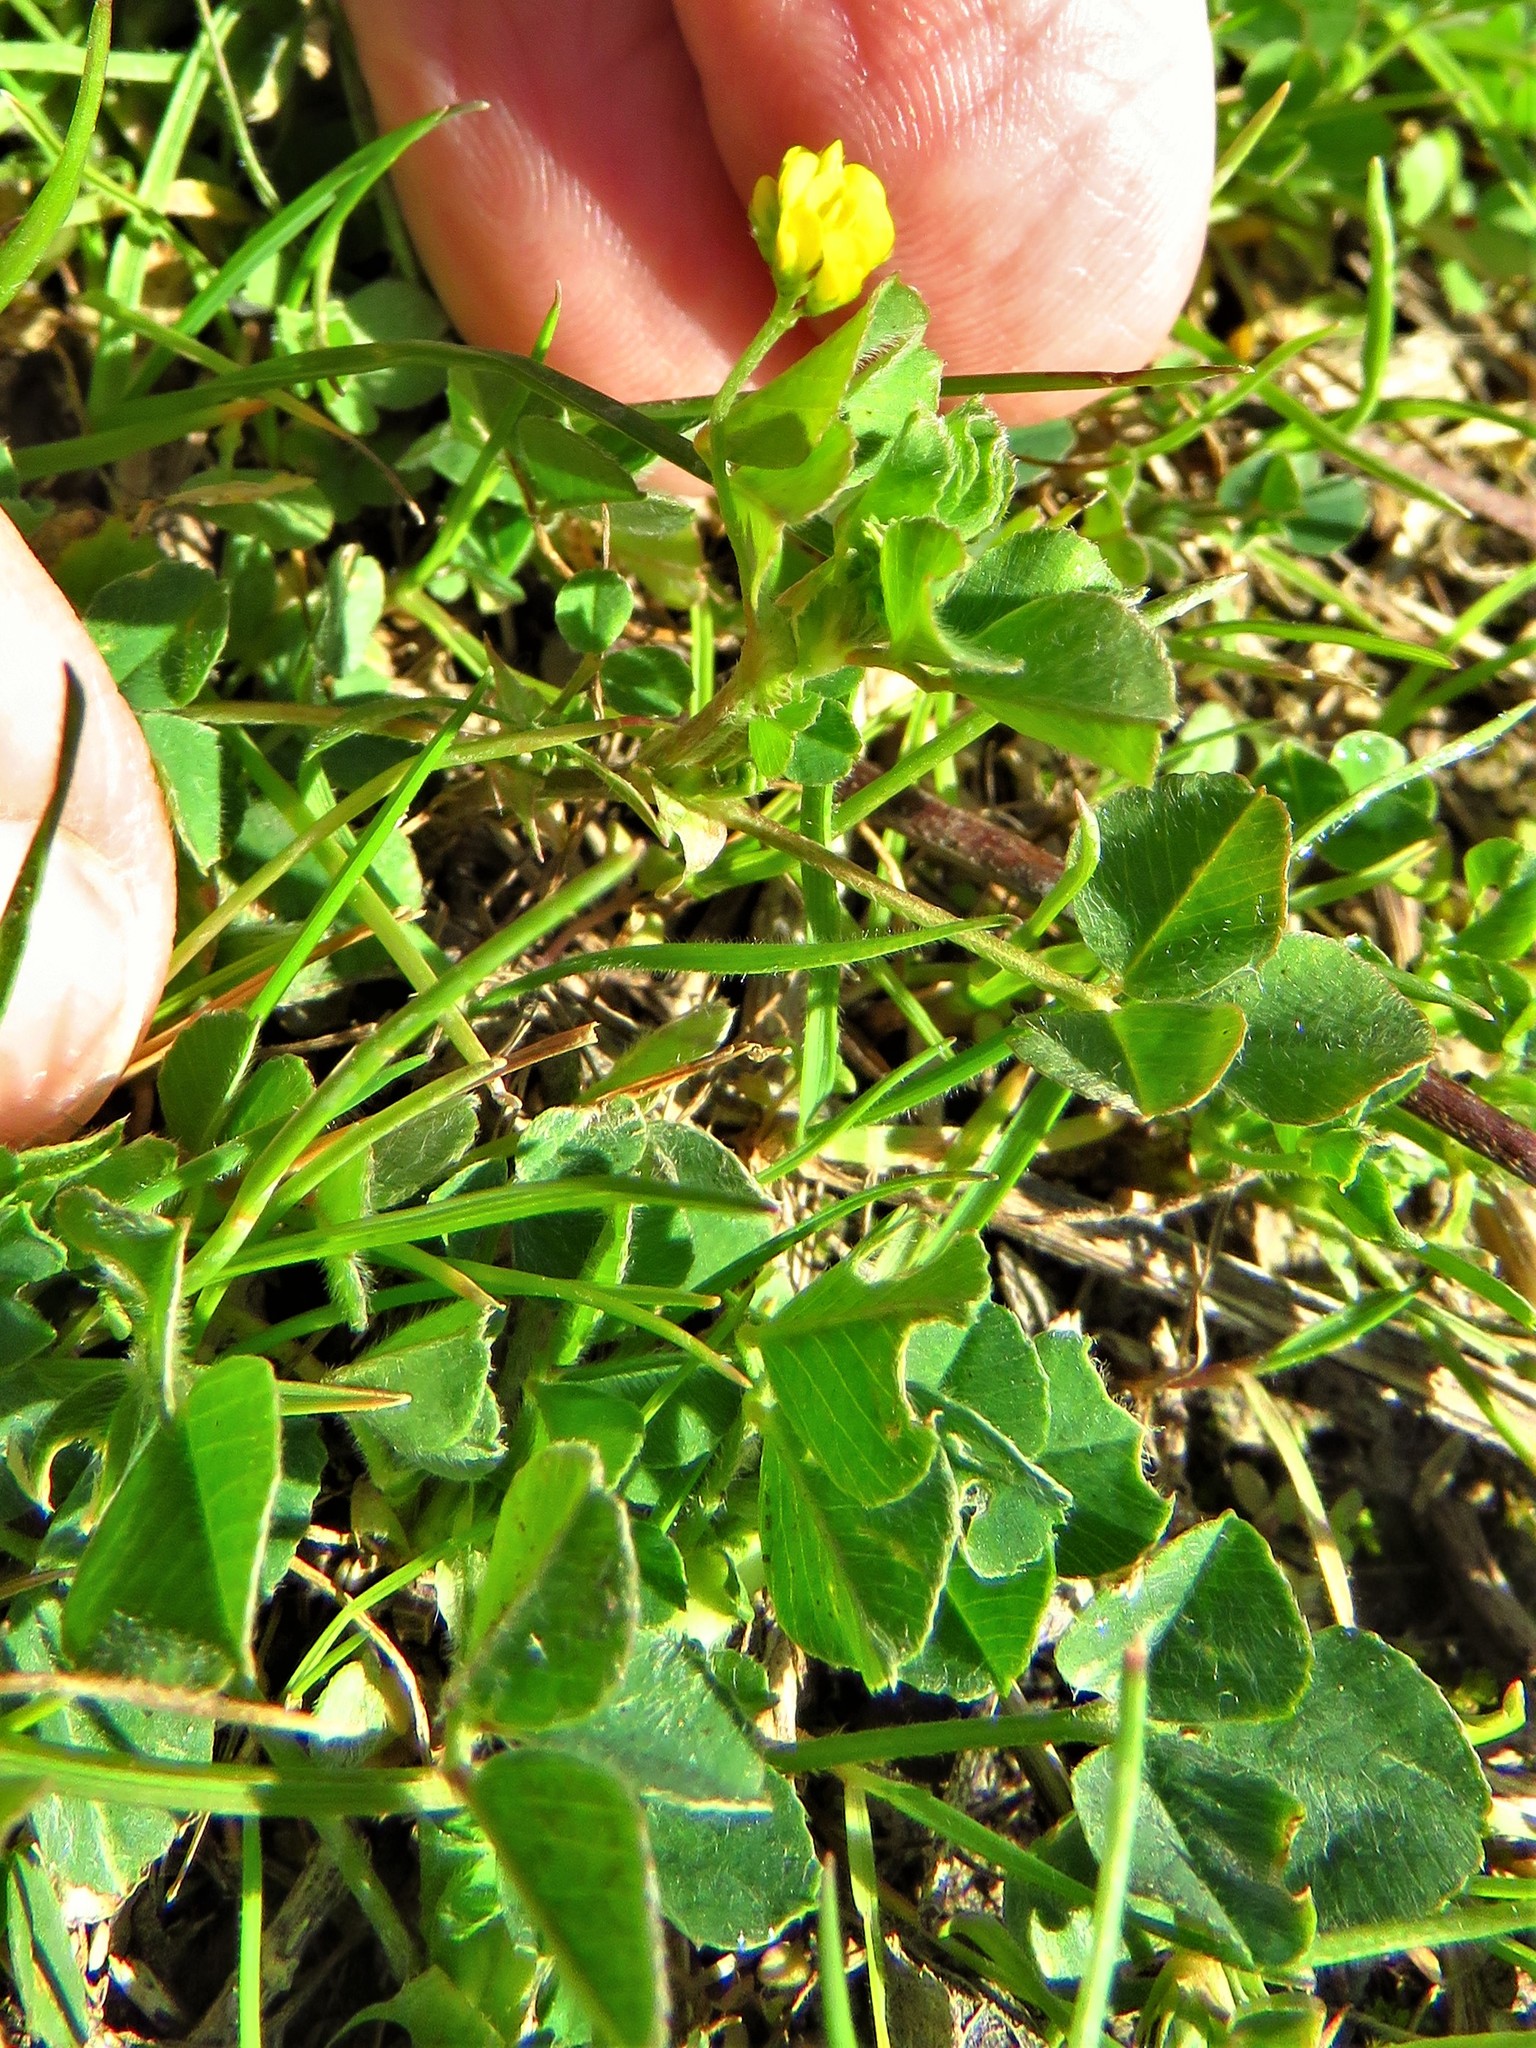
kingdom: Plantae
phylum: Tracheophyta
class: Magnoliopsida
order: Fabales
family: Fabaceae
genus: Medicago
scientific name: Medicago minima
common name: Little bur-clover
